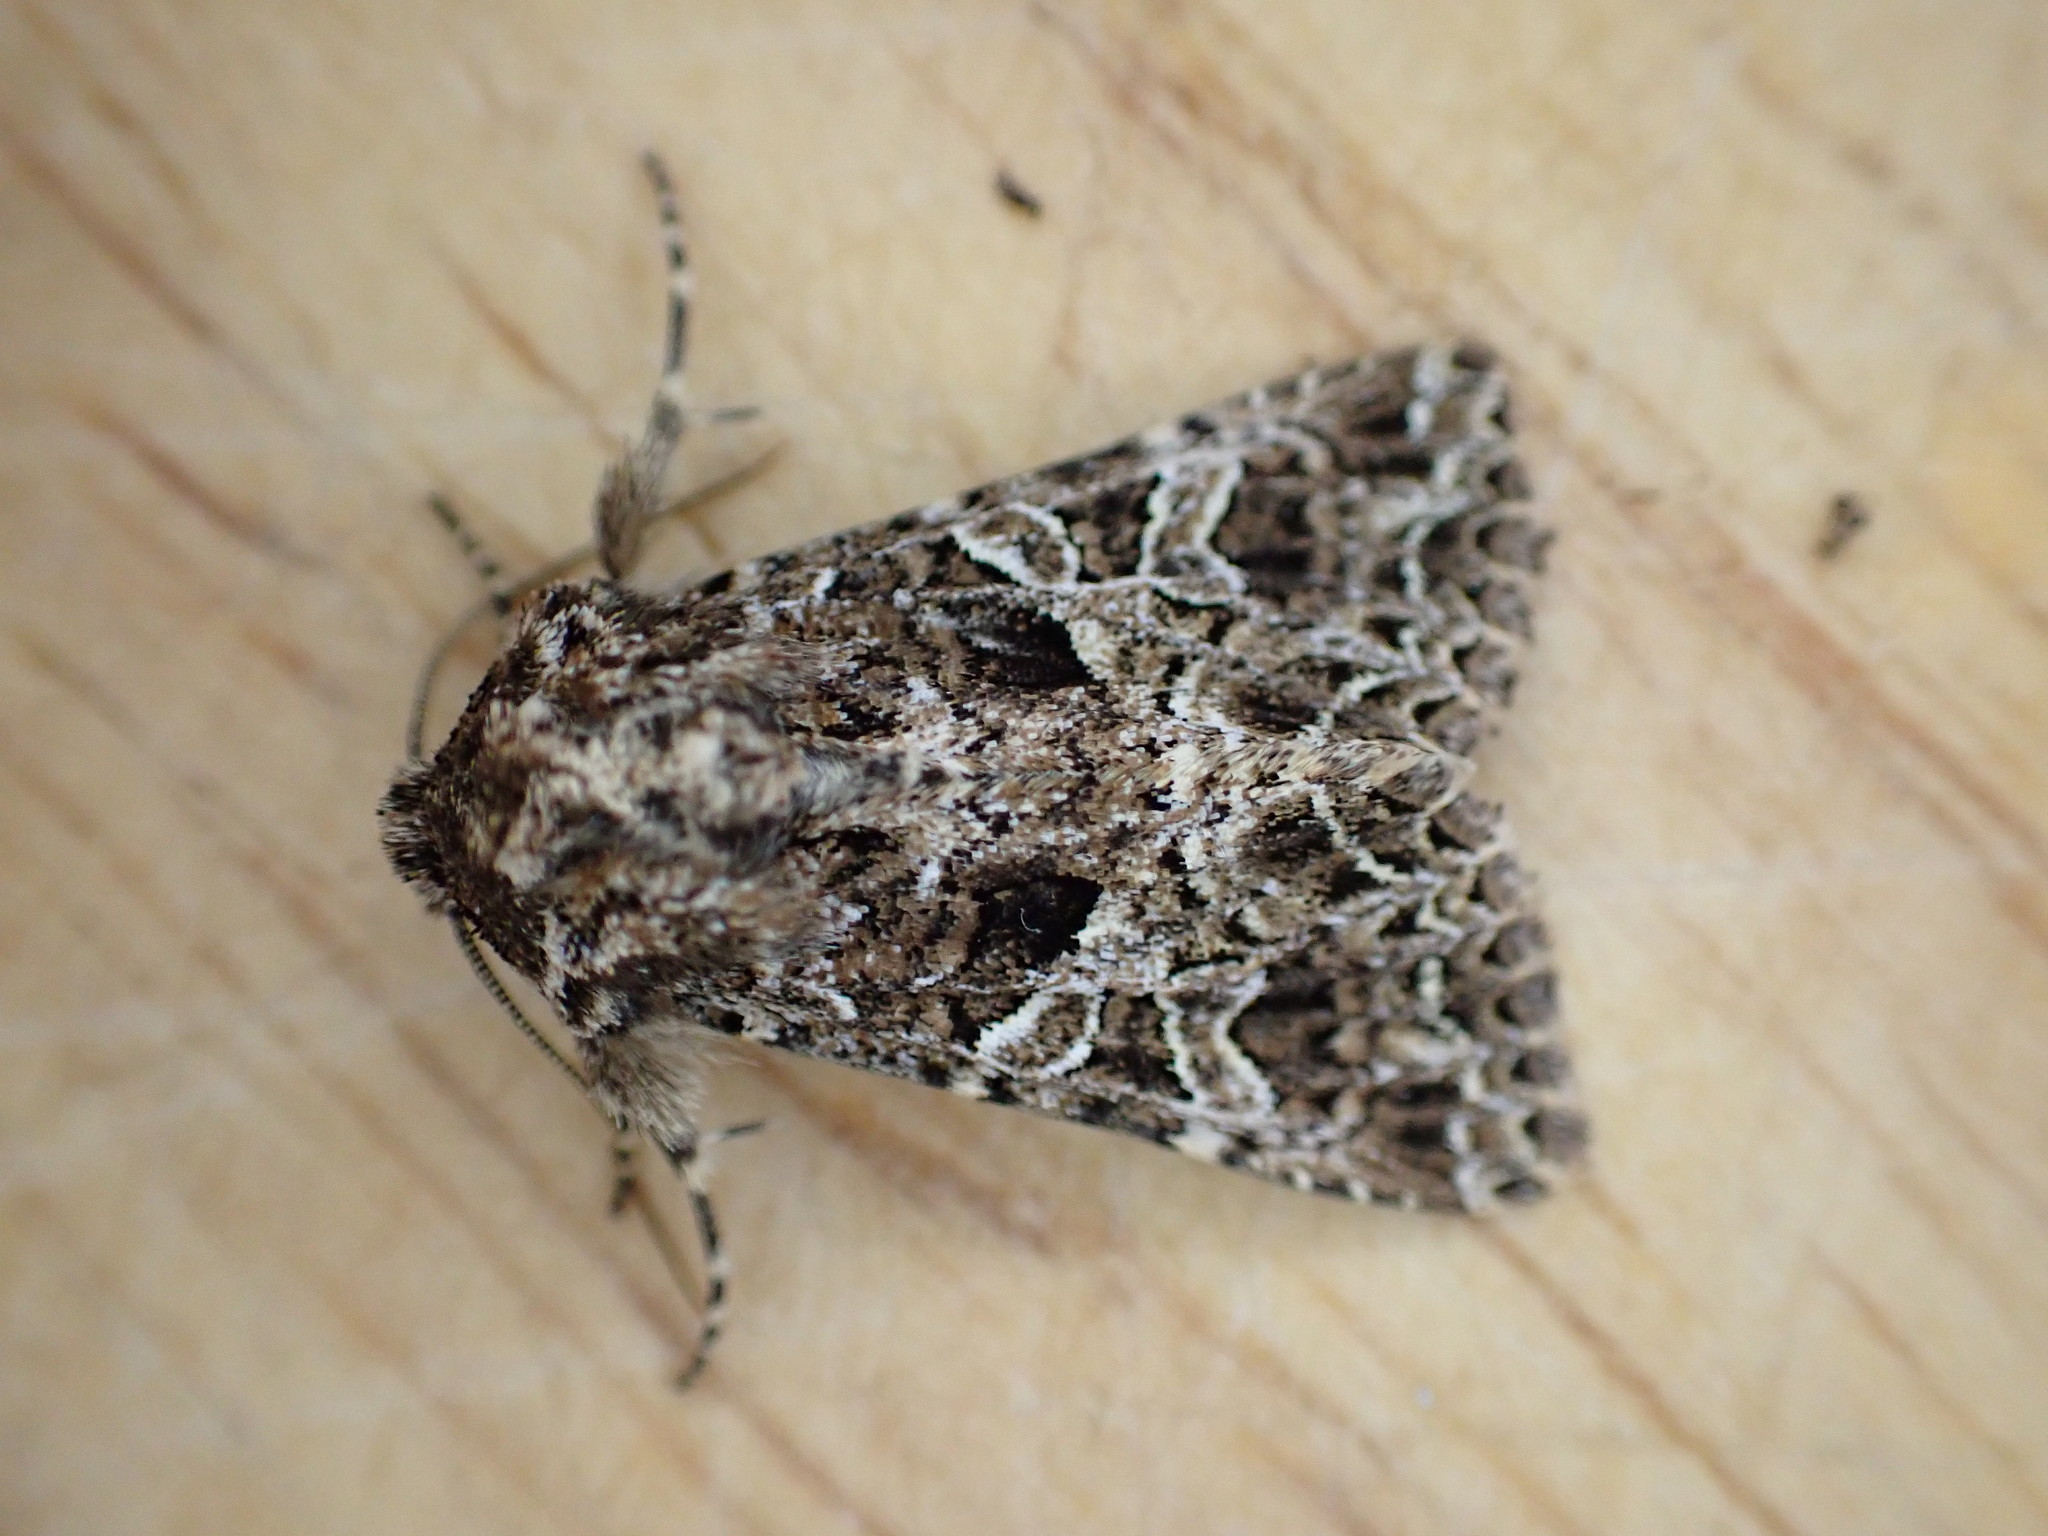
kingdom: Animalia
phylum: Arthropoda
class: Insecta
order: Lepidoptera
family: Noctuidae
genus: Hadena
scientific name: Hadena bicruris
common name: Lychnis
